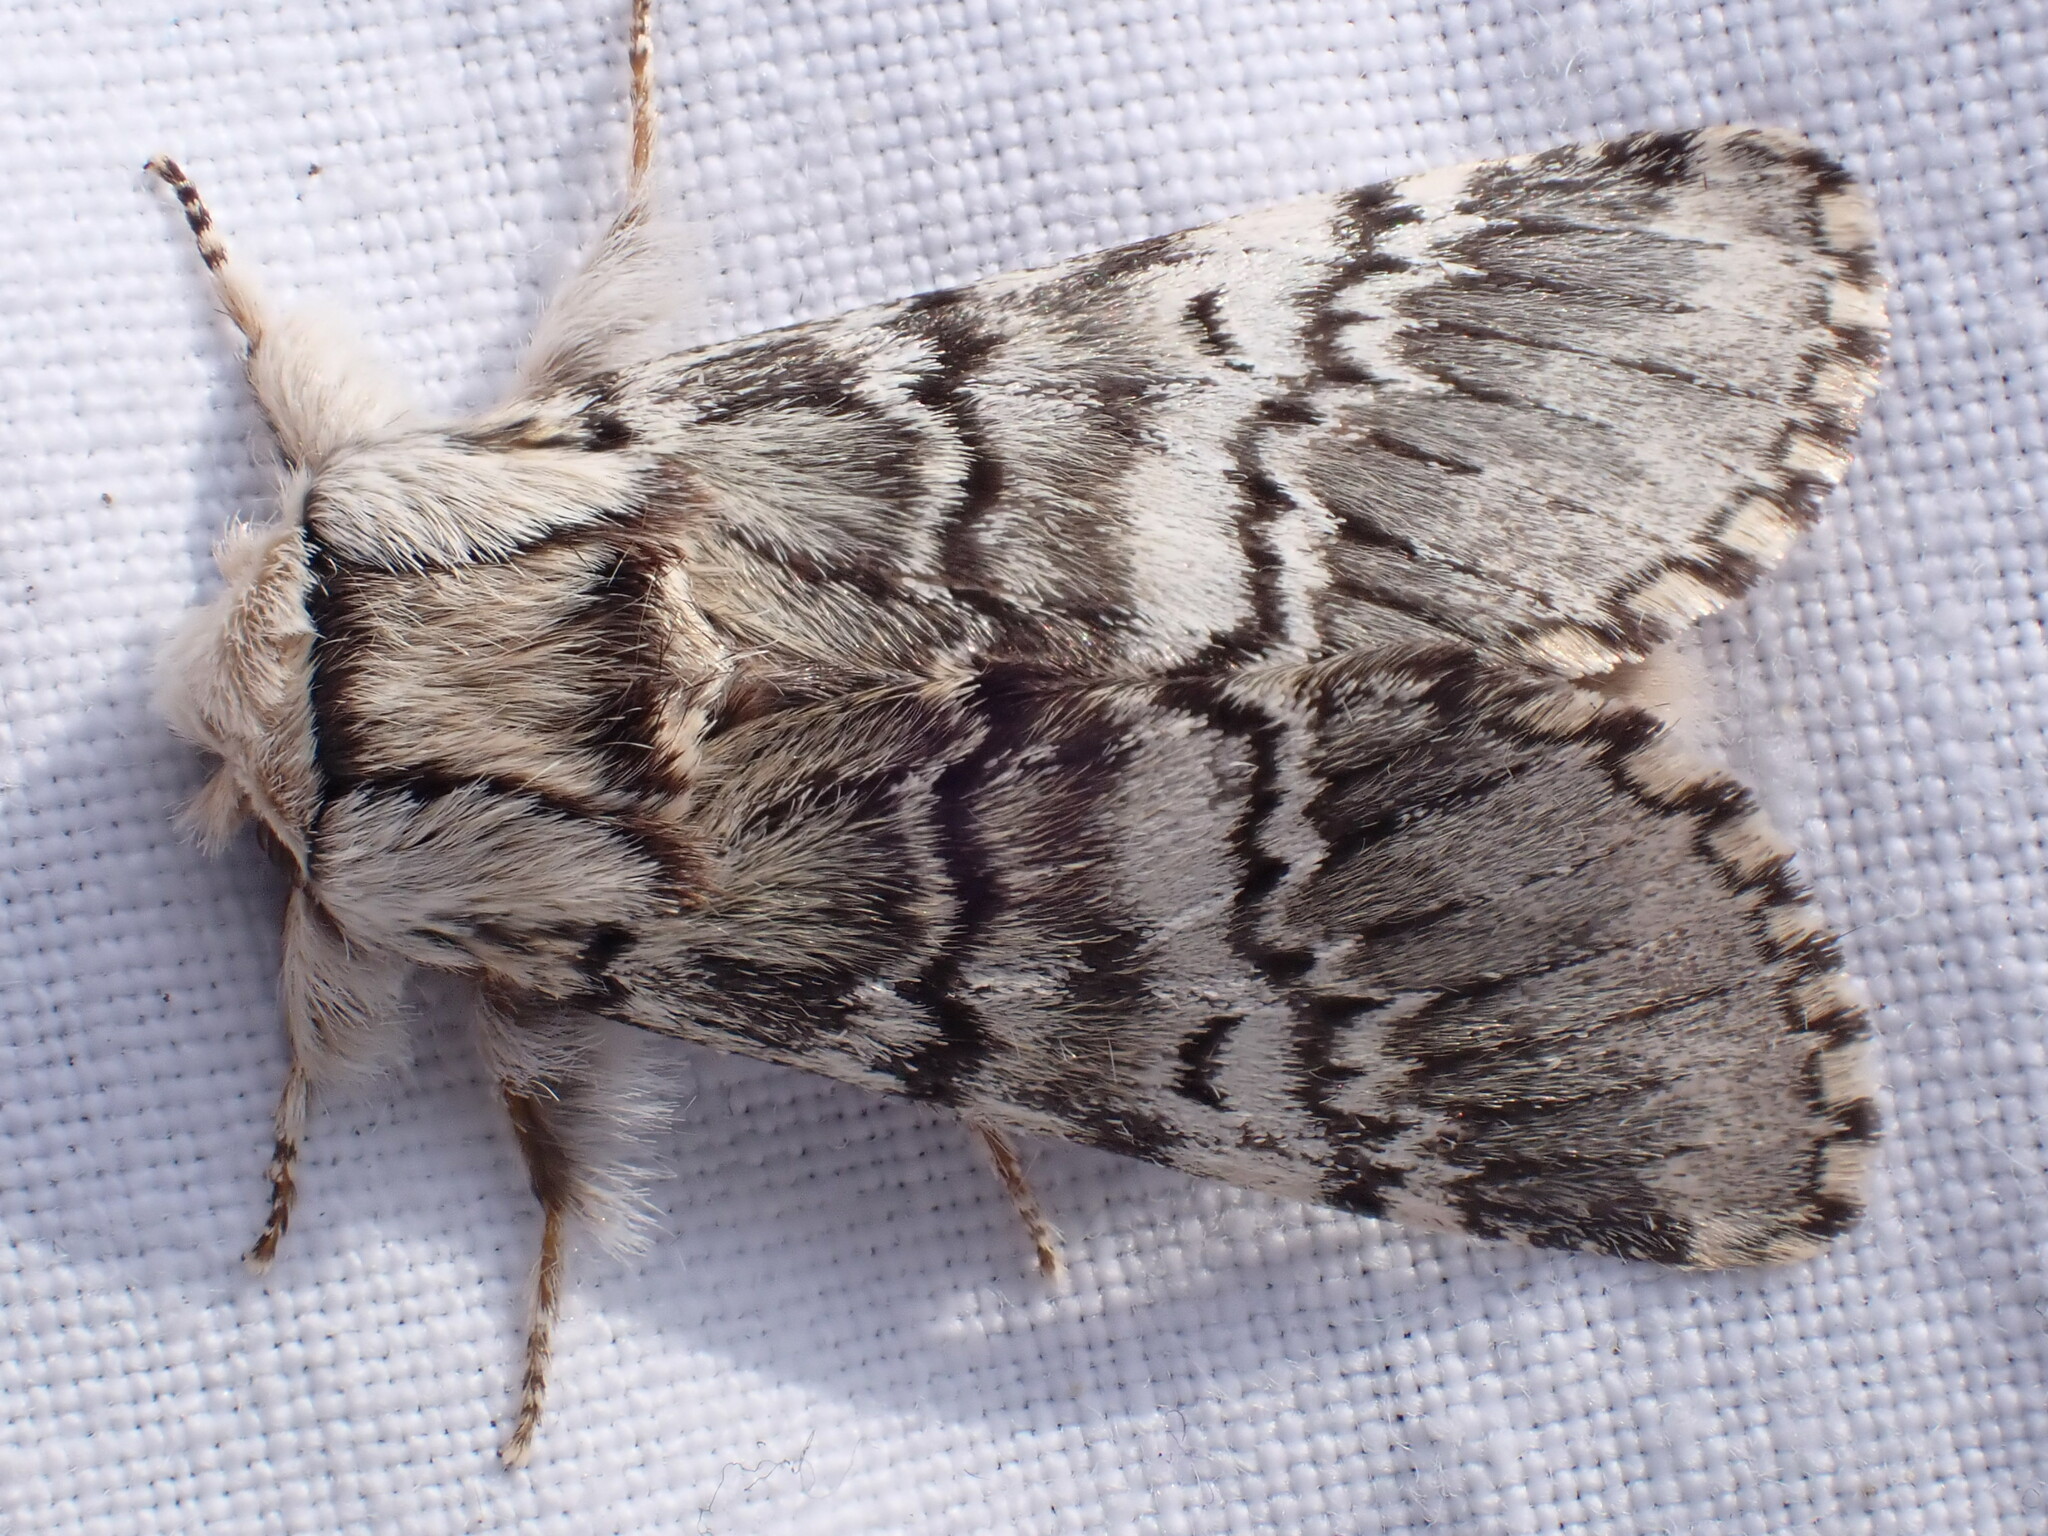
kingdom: Animalia
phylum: Arthropoda
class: Insecta
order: Lepidoptera
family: Notodontidae
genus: Drymonia
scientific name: Drymonia ruficornis
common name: Lunar marbled brown
